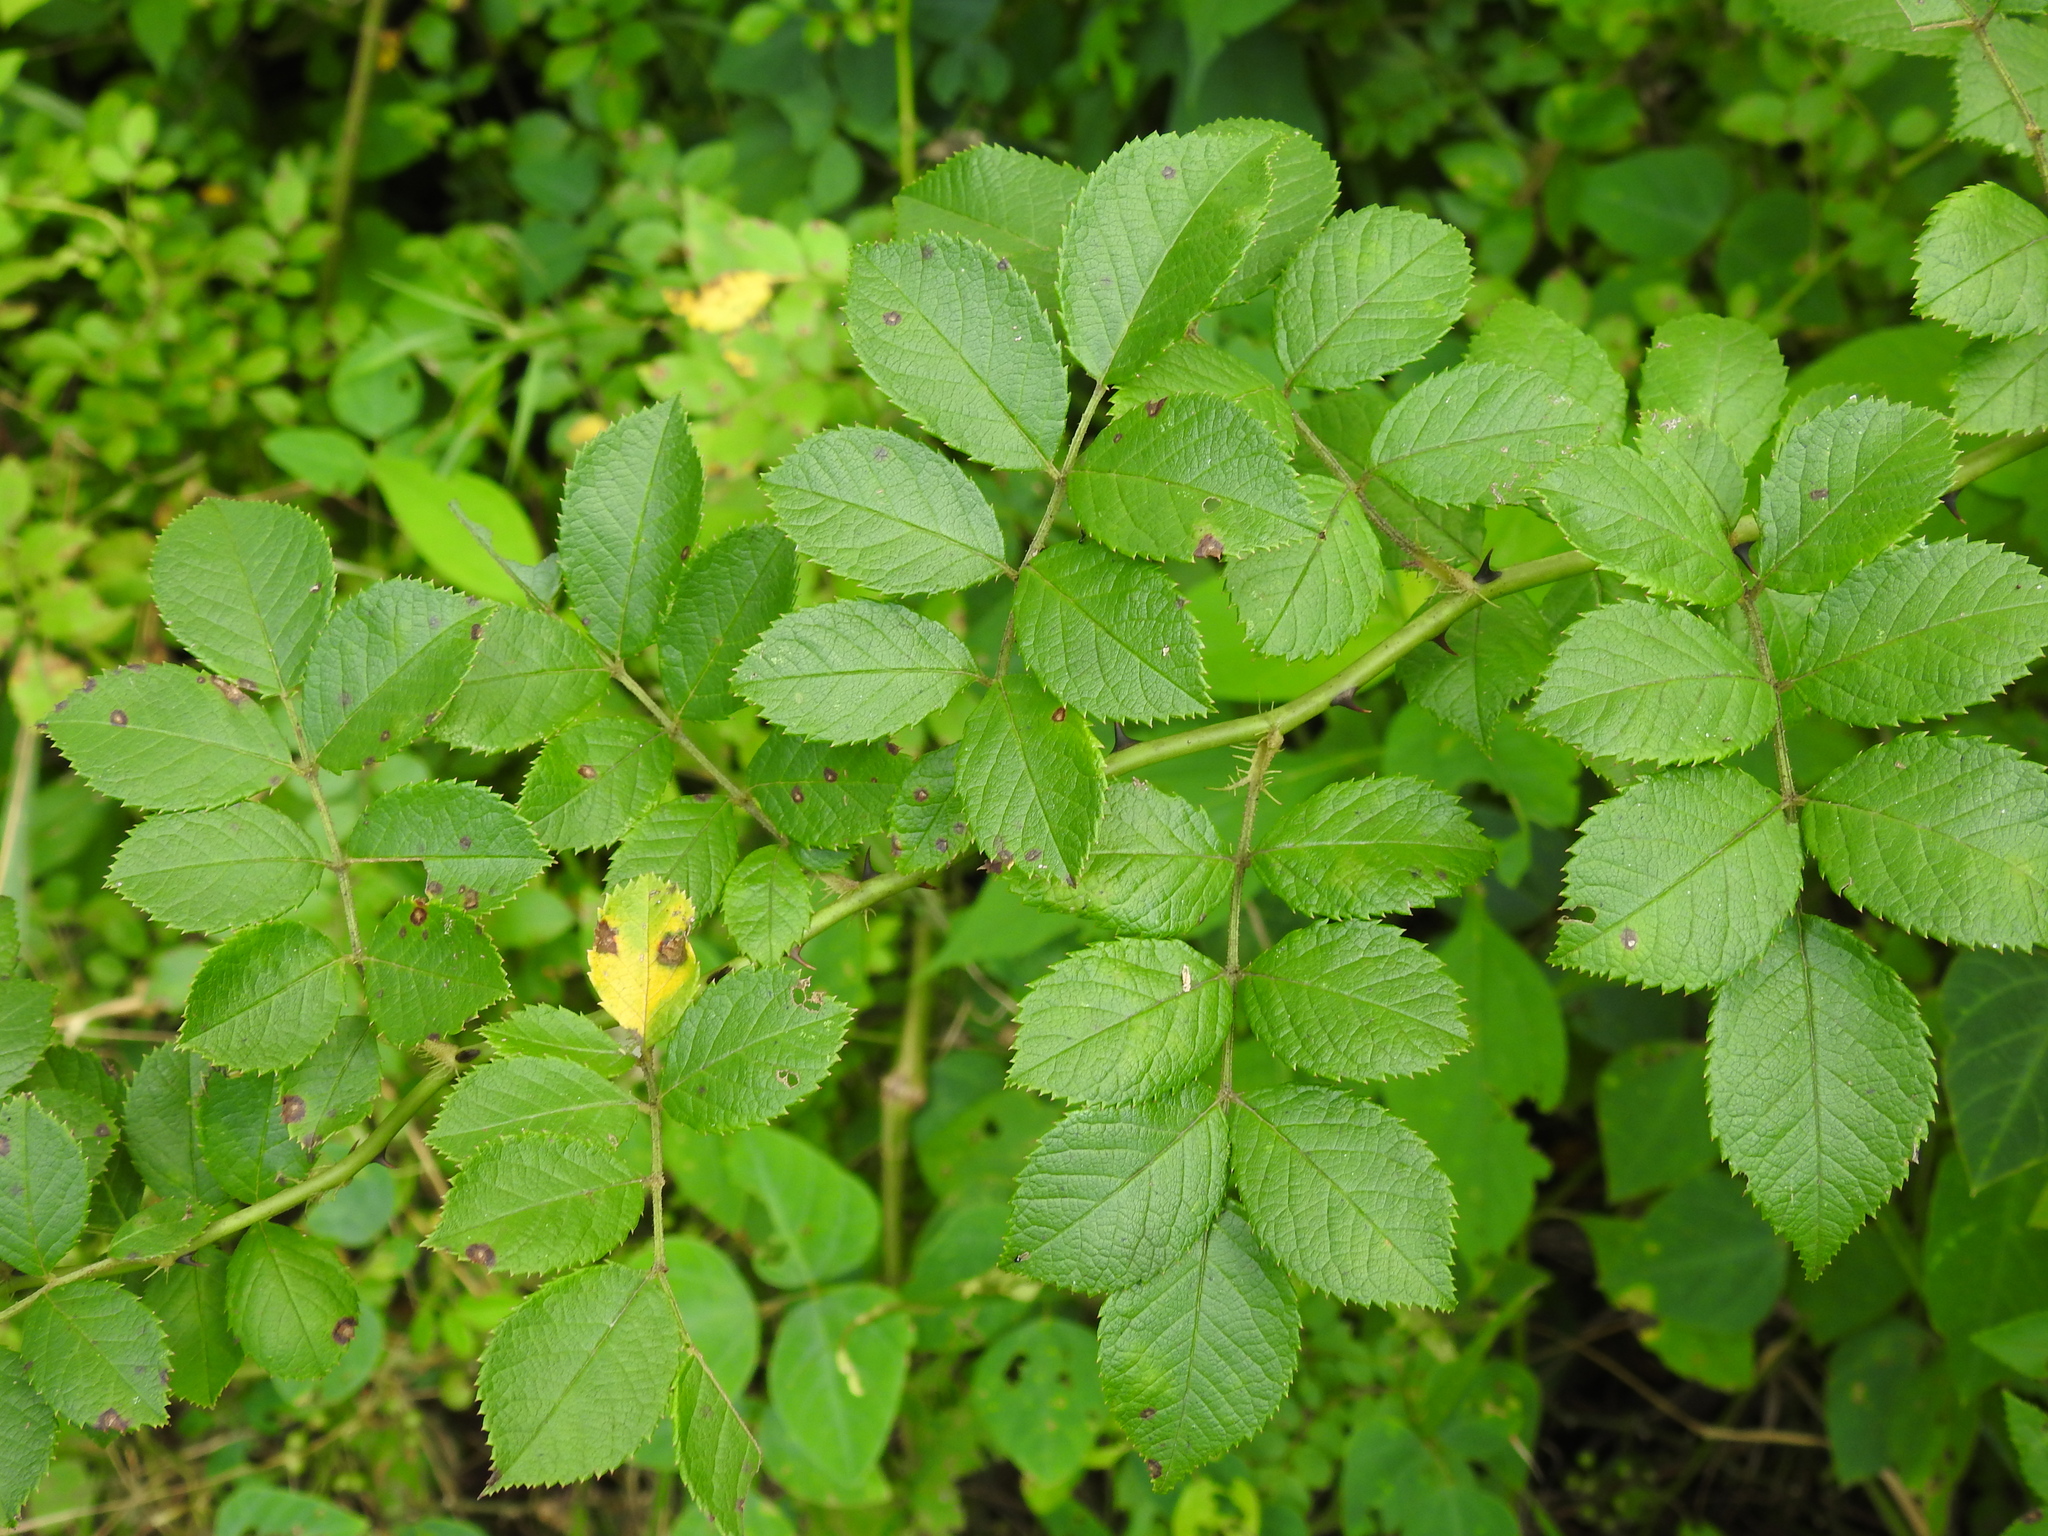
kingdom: Plantae
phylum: Tracheophyta
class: Magnoliopsida
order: Rosales
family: Rosaceae
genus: Rosa
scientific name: Rosa multiflora
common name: Multiflora rose
